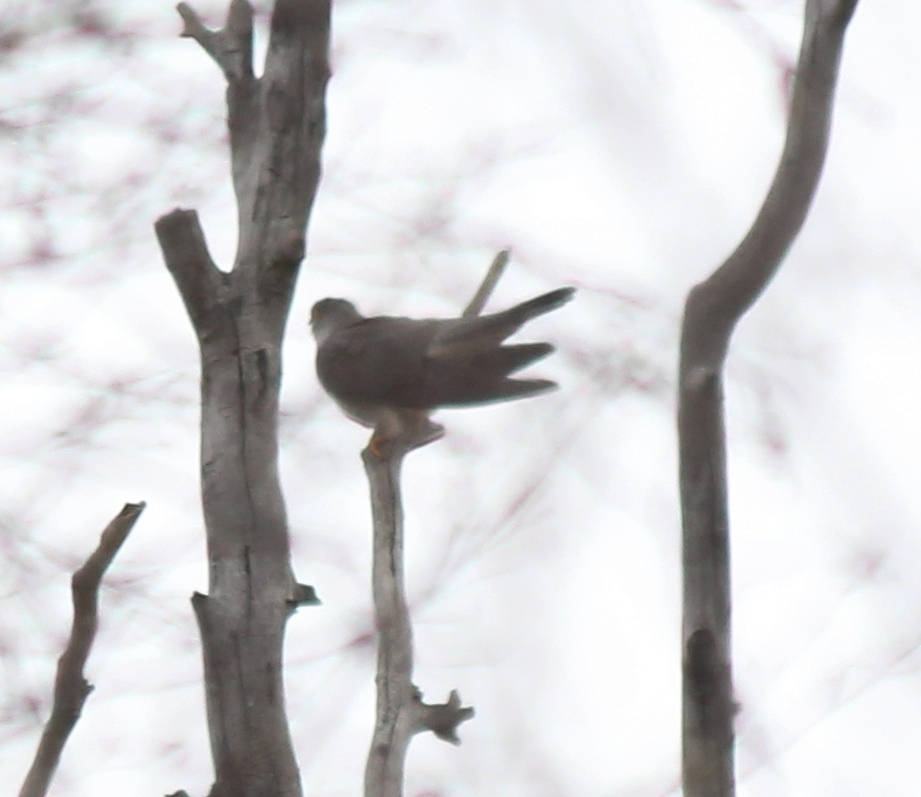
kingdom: Animalia
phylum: Chordata
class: Aves
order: Cuculiformes
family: Cuculidae
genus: Cuculus
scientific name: Cuculus canorus
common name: Common cuckoo
